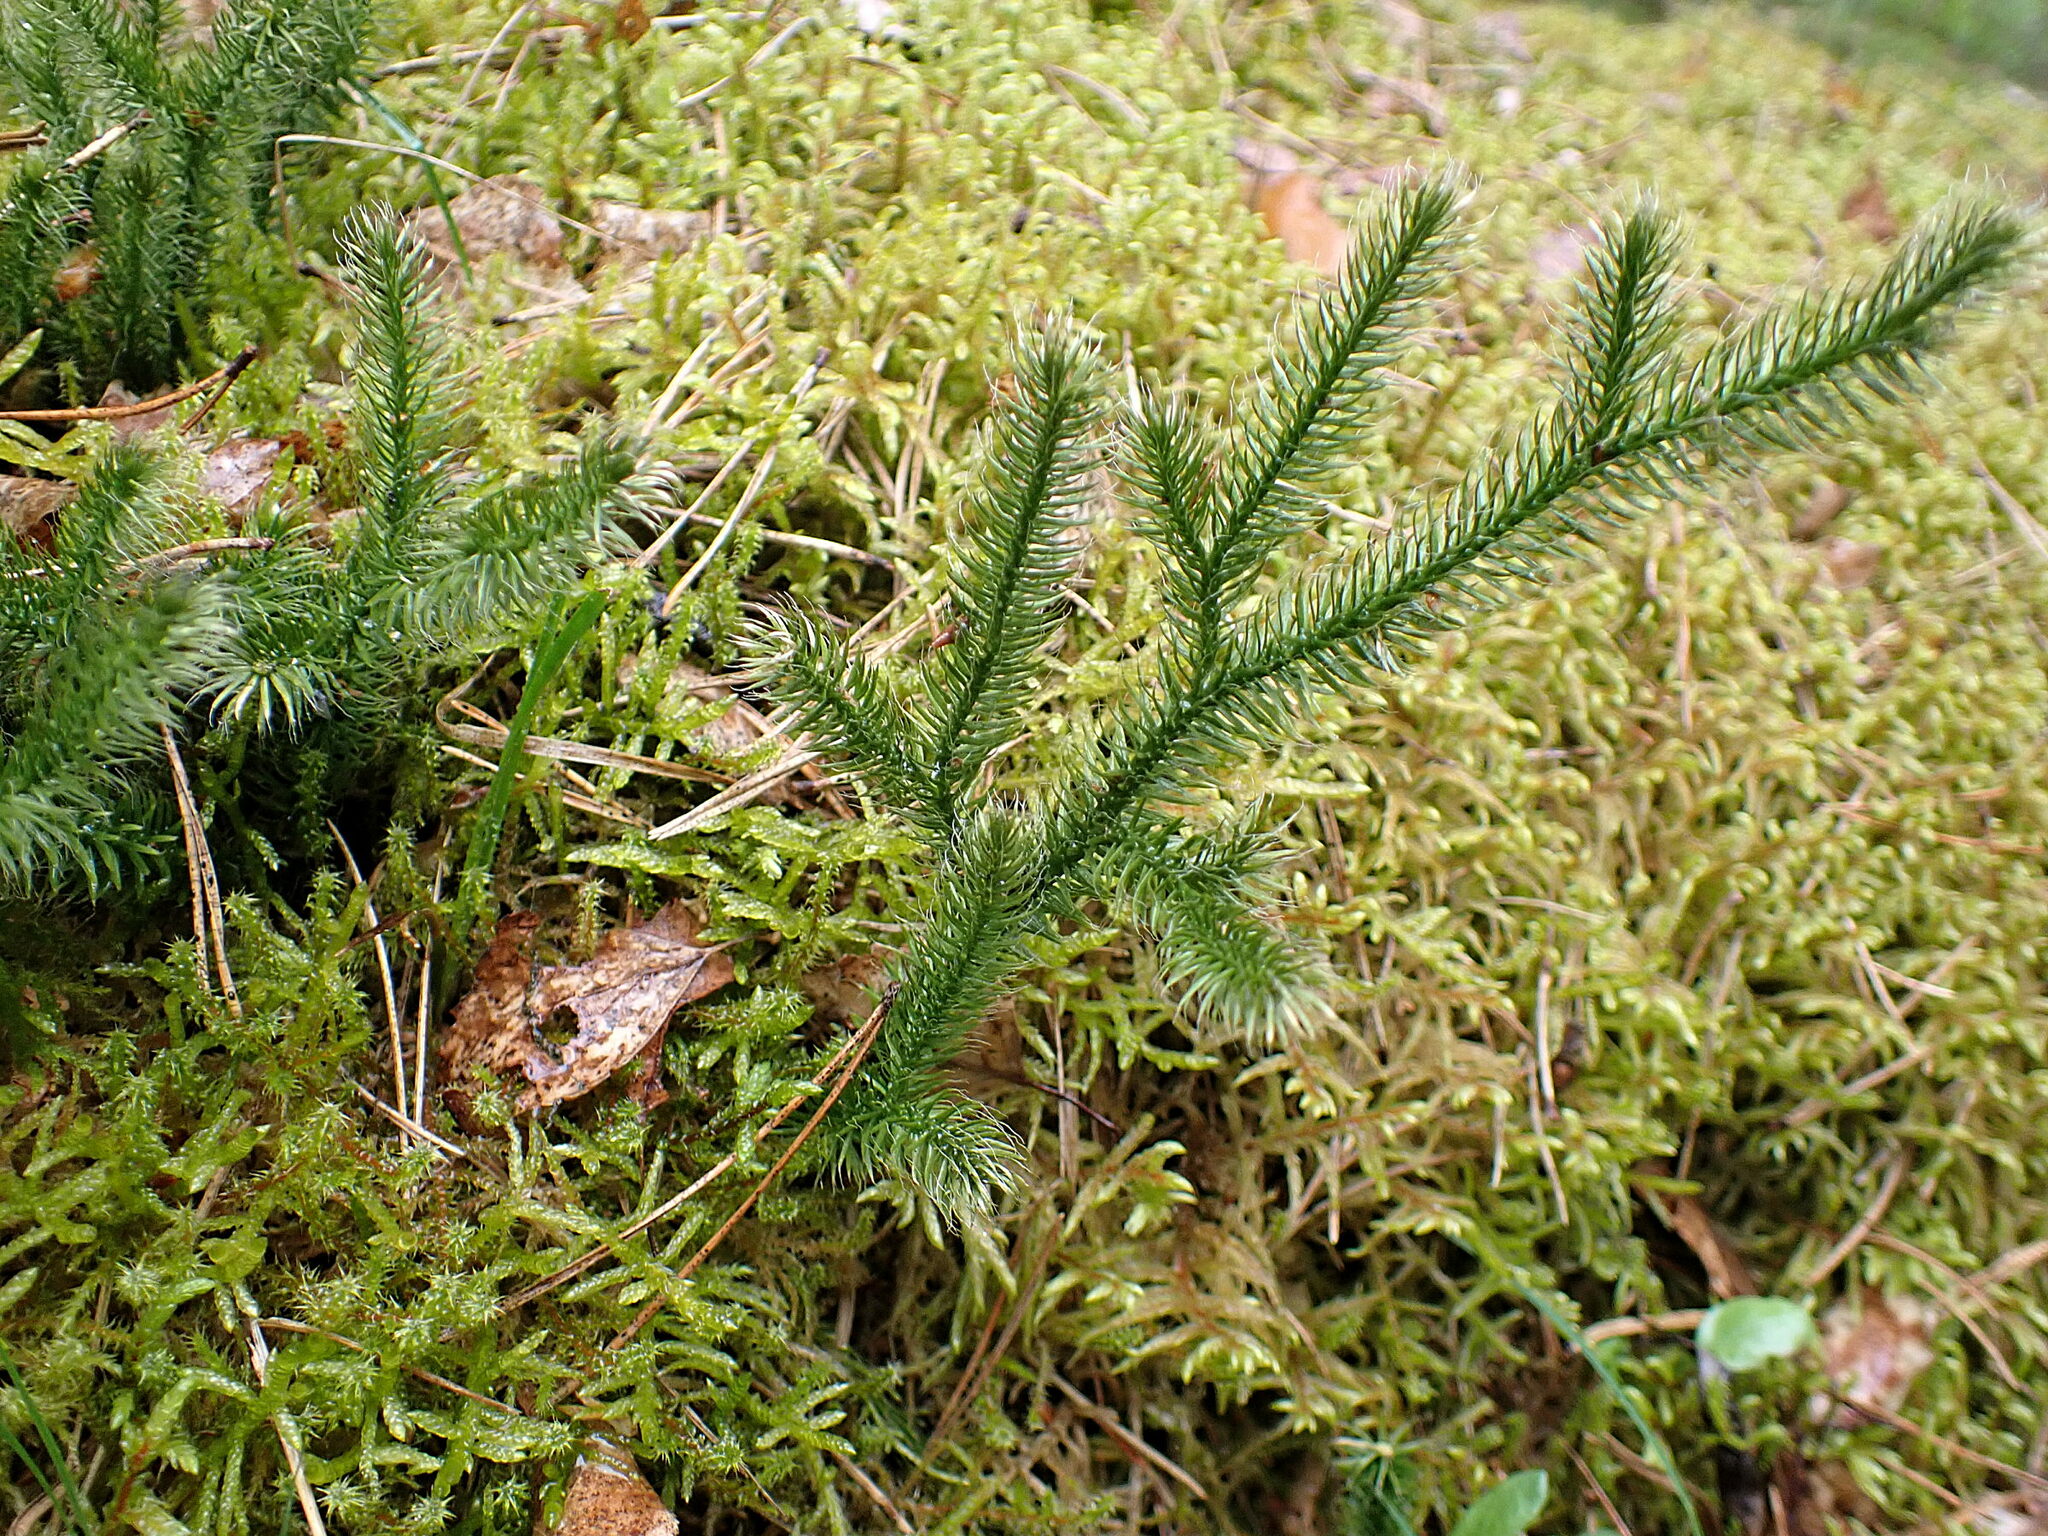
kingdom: Plantae
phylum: Tracheophyta
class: Lycopodiopsida
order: Lycopodiales
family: Lycopodiaceae
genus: Lycopodium
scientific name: Lycopodium clavatum
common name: Stag's-horn clubmoss
